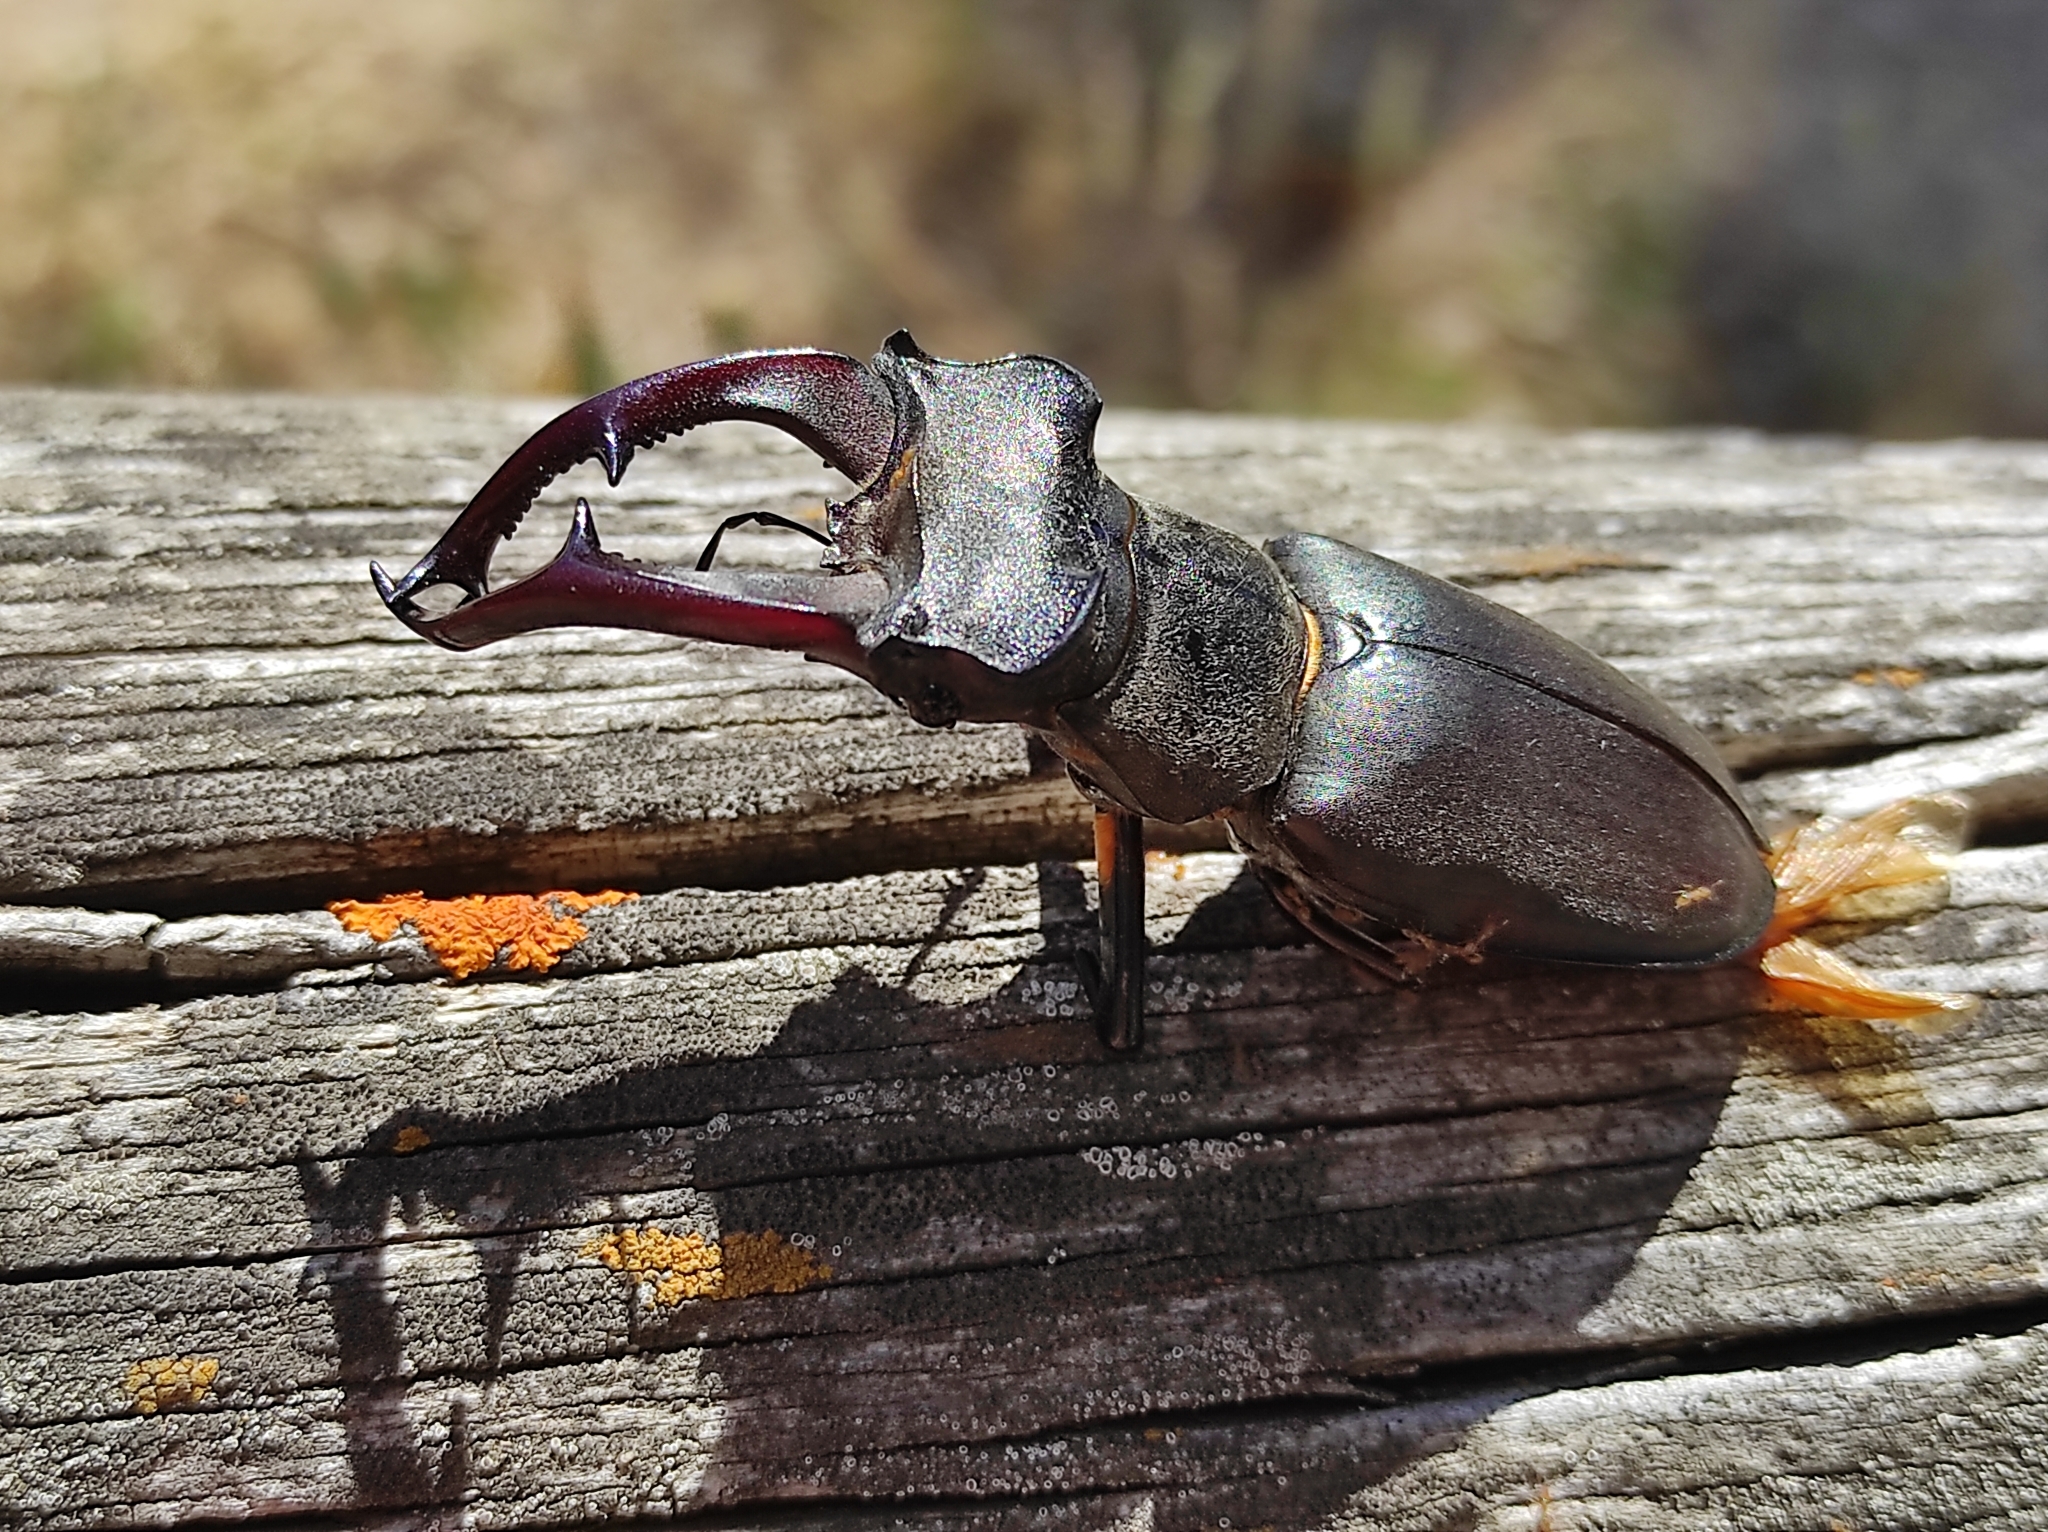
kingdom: Animalia
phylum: Arthropoda
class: Insecta
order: Coleoptera
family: Lucanidae
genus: Lucanus
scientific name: Lucanus cervus
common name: Stag beetle
